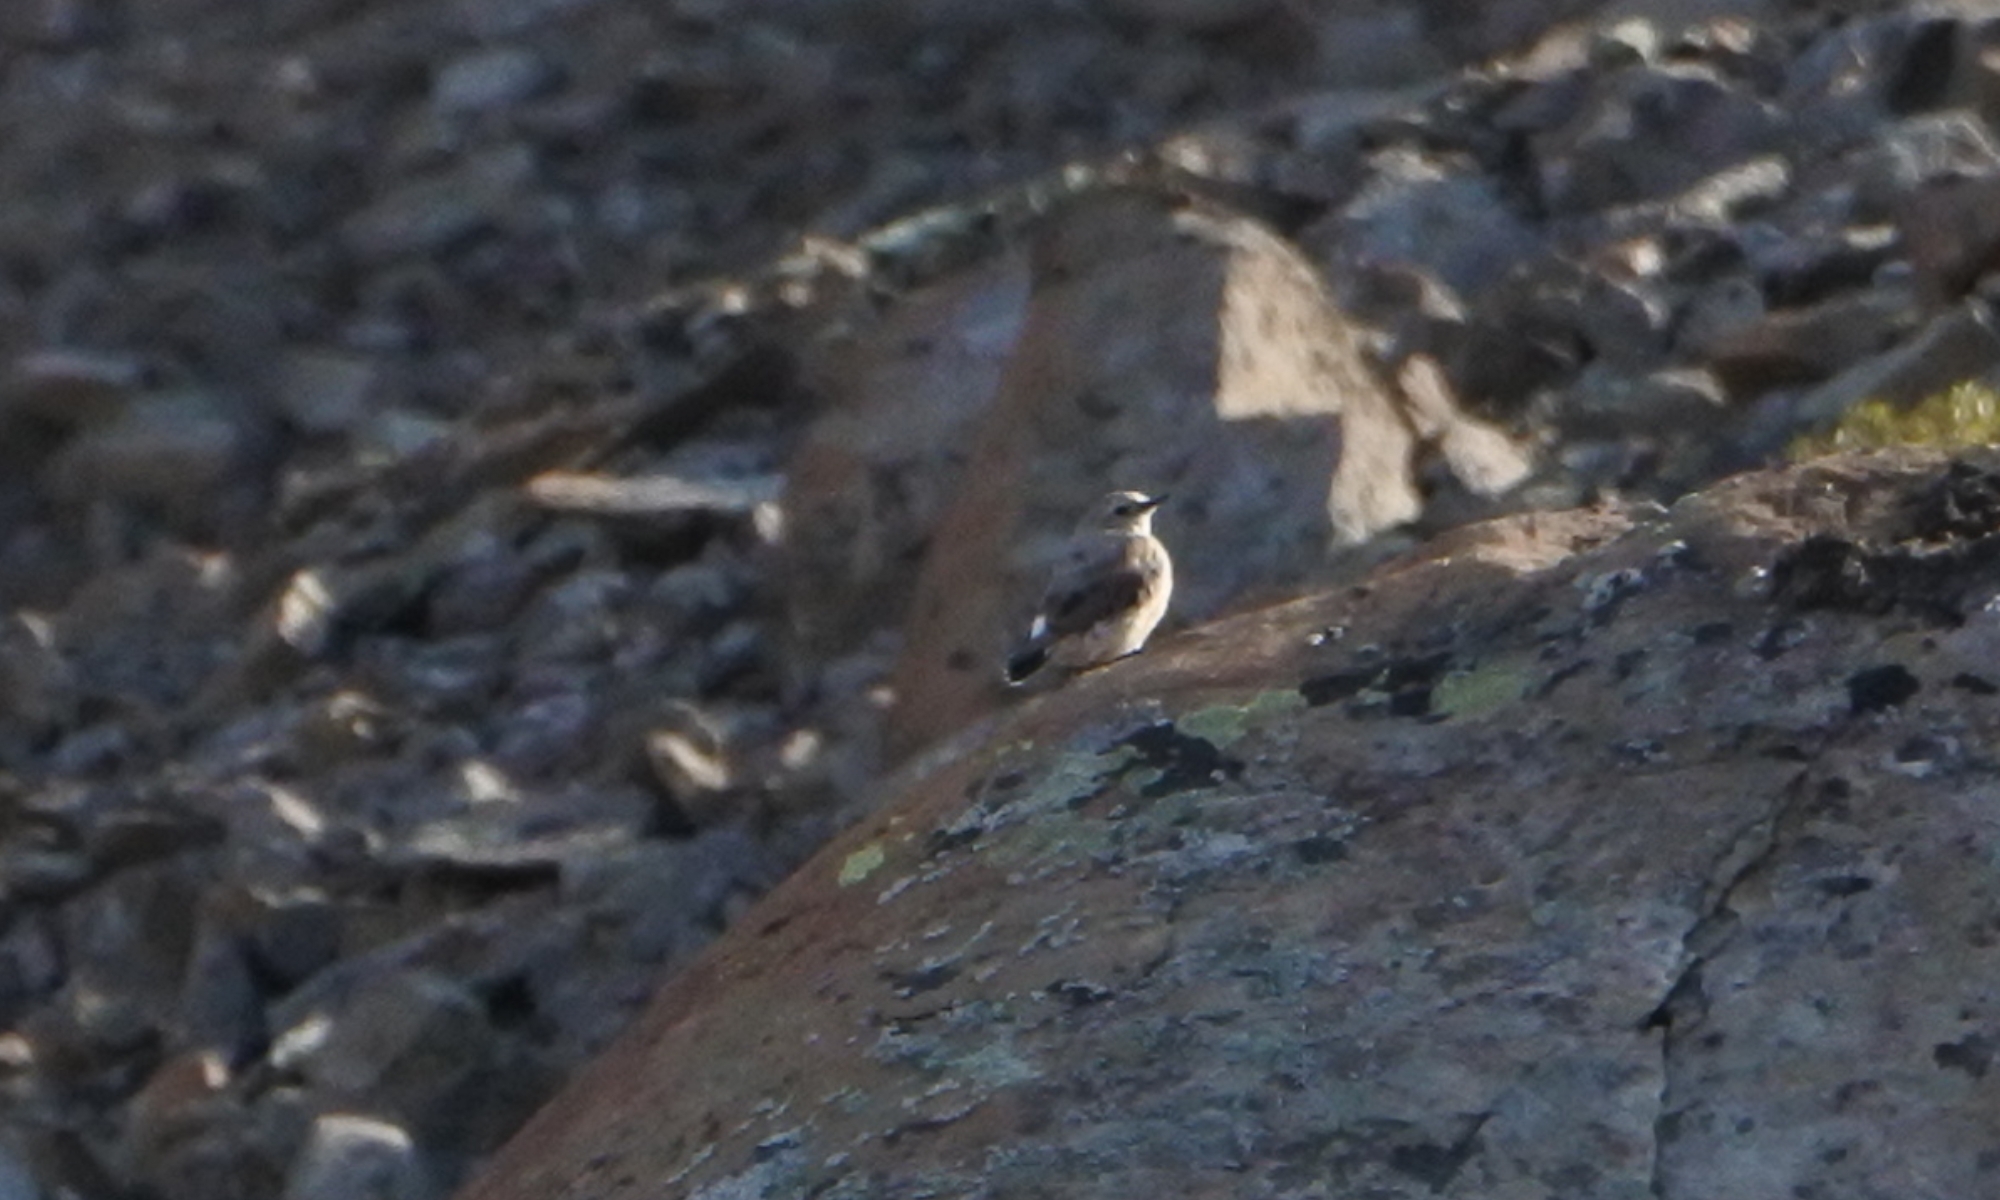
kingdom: Animalia
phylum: Chordata
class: Aves
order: Passeriformes
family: Muscicapidae
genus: Oenanthe
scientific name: Oenanthe oenanthe
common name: Northern wheatear
